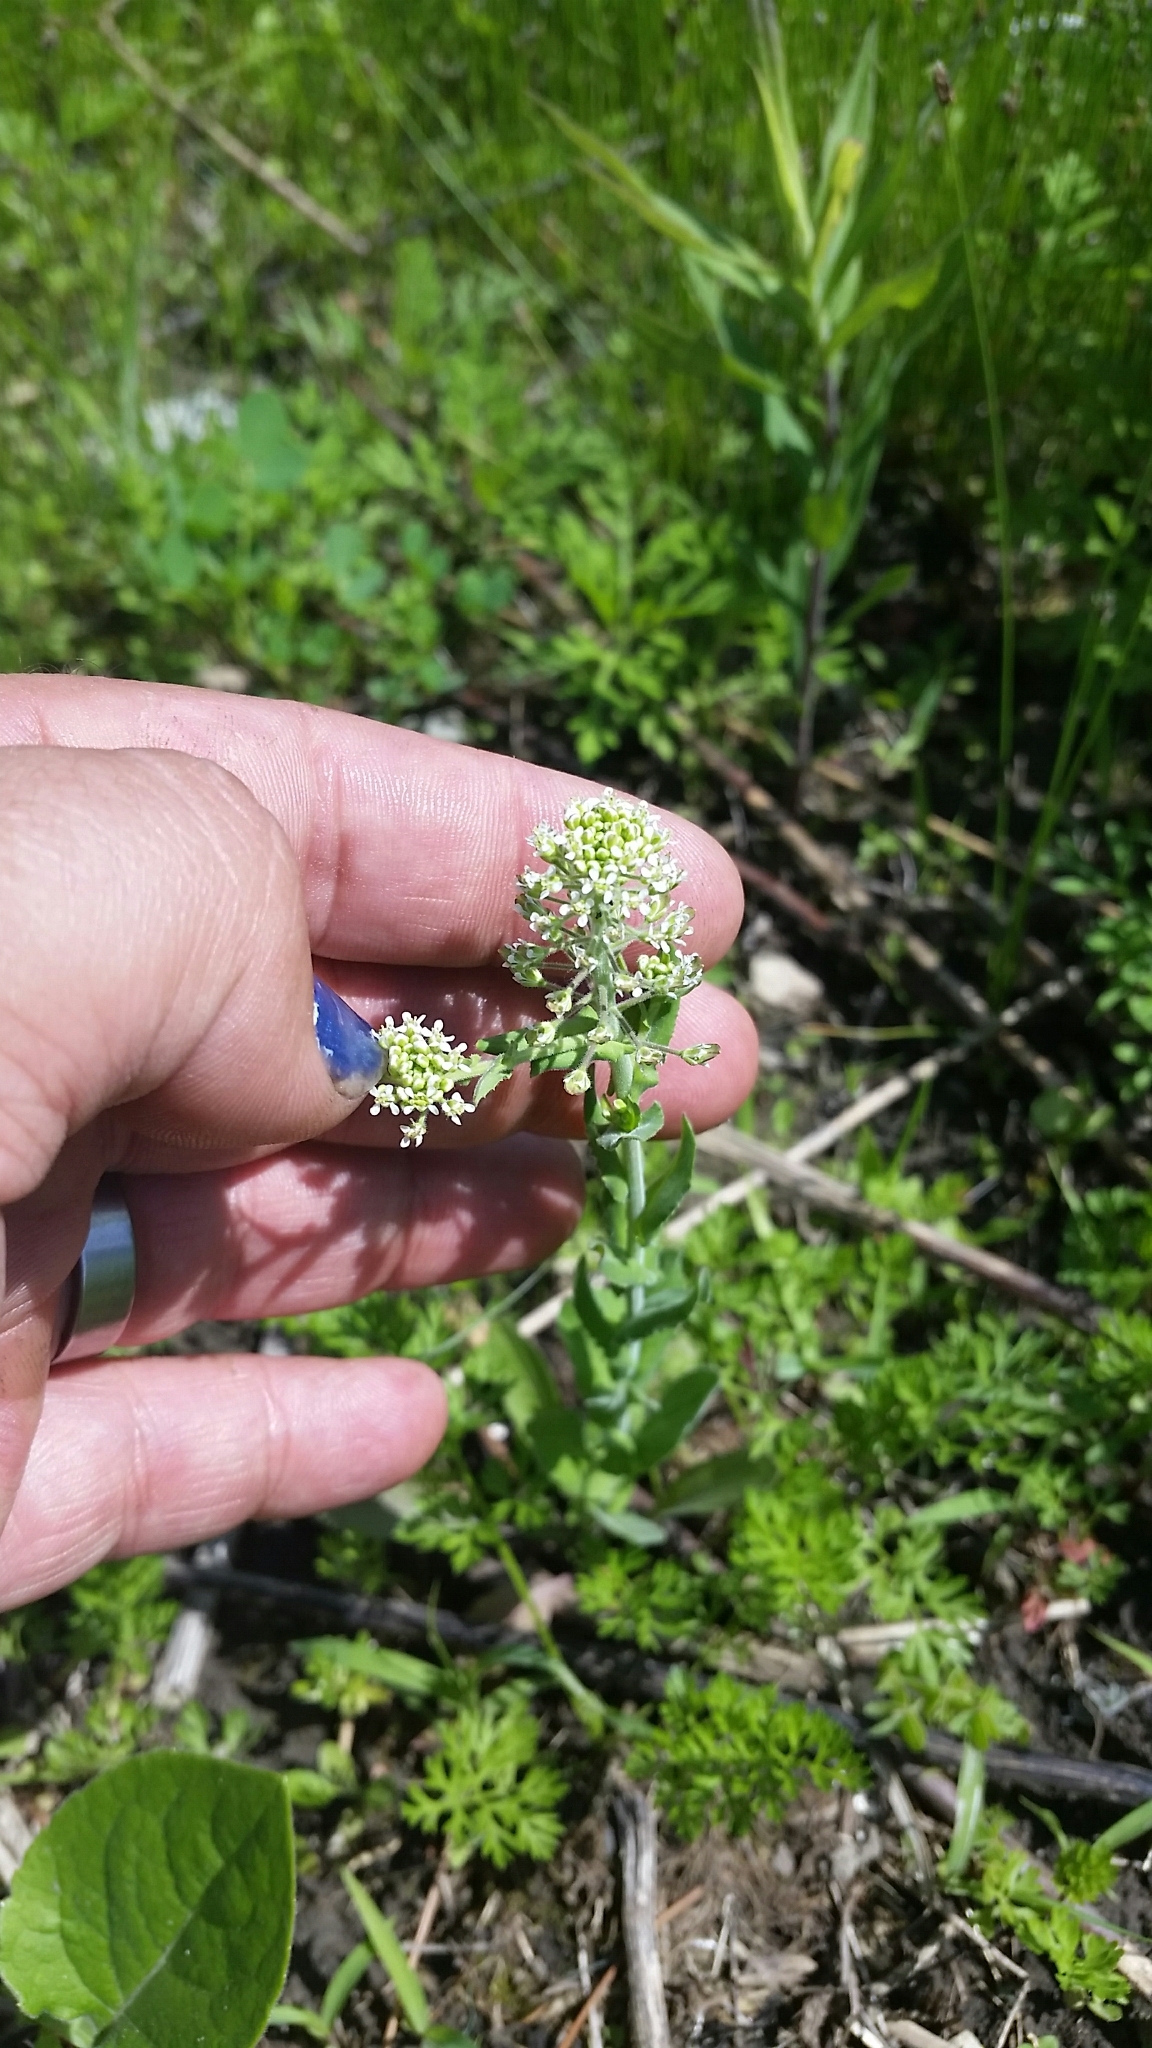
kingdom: Plantae
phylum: Tracheophyta
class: Magnoliopsida
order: Brassicales
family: Brassicaceae
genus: Lepidium
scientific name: Lepidium campestre
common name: Field pepperwort
